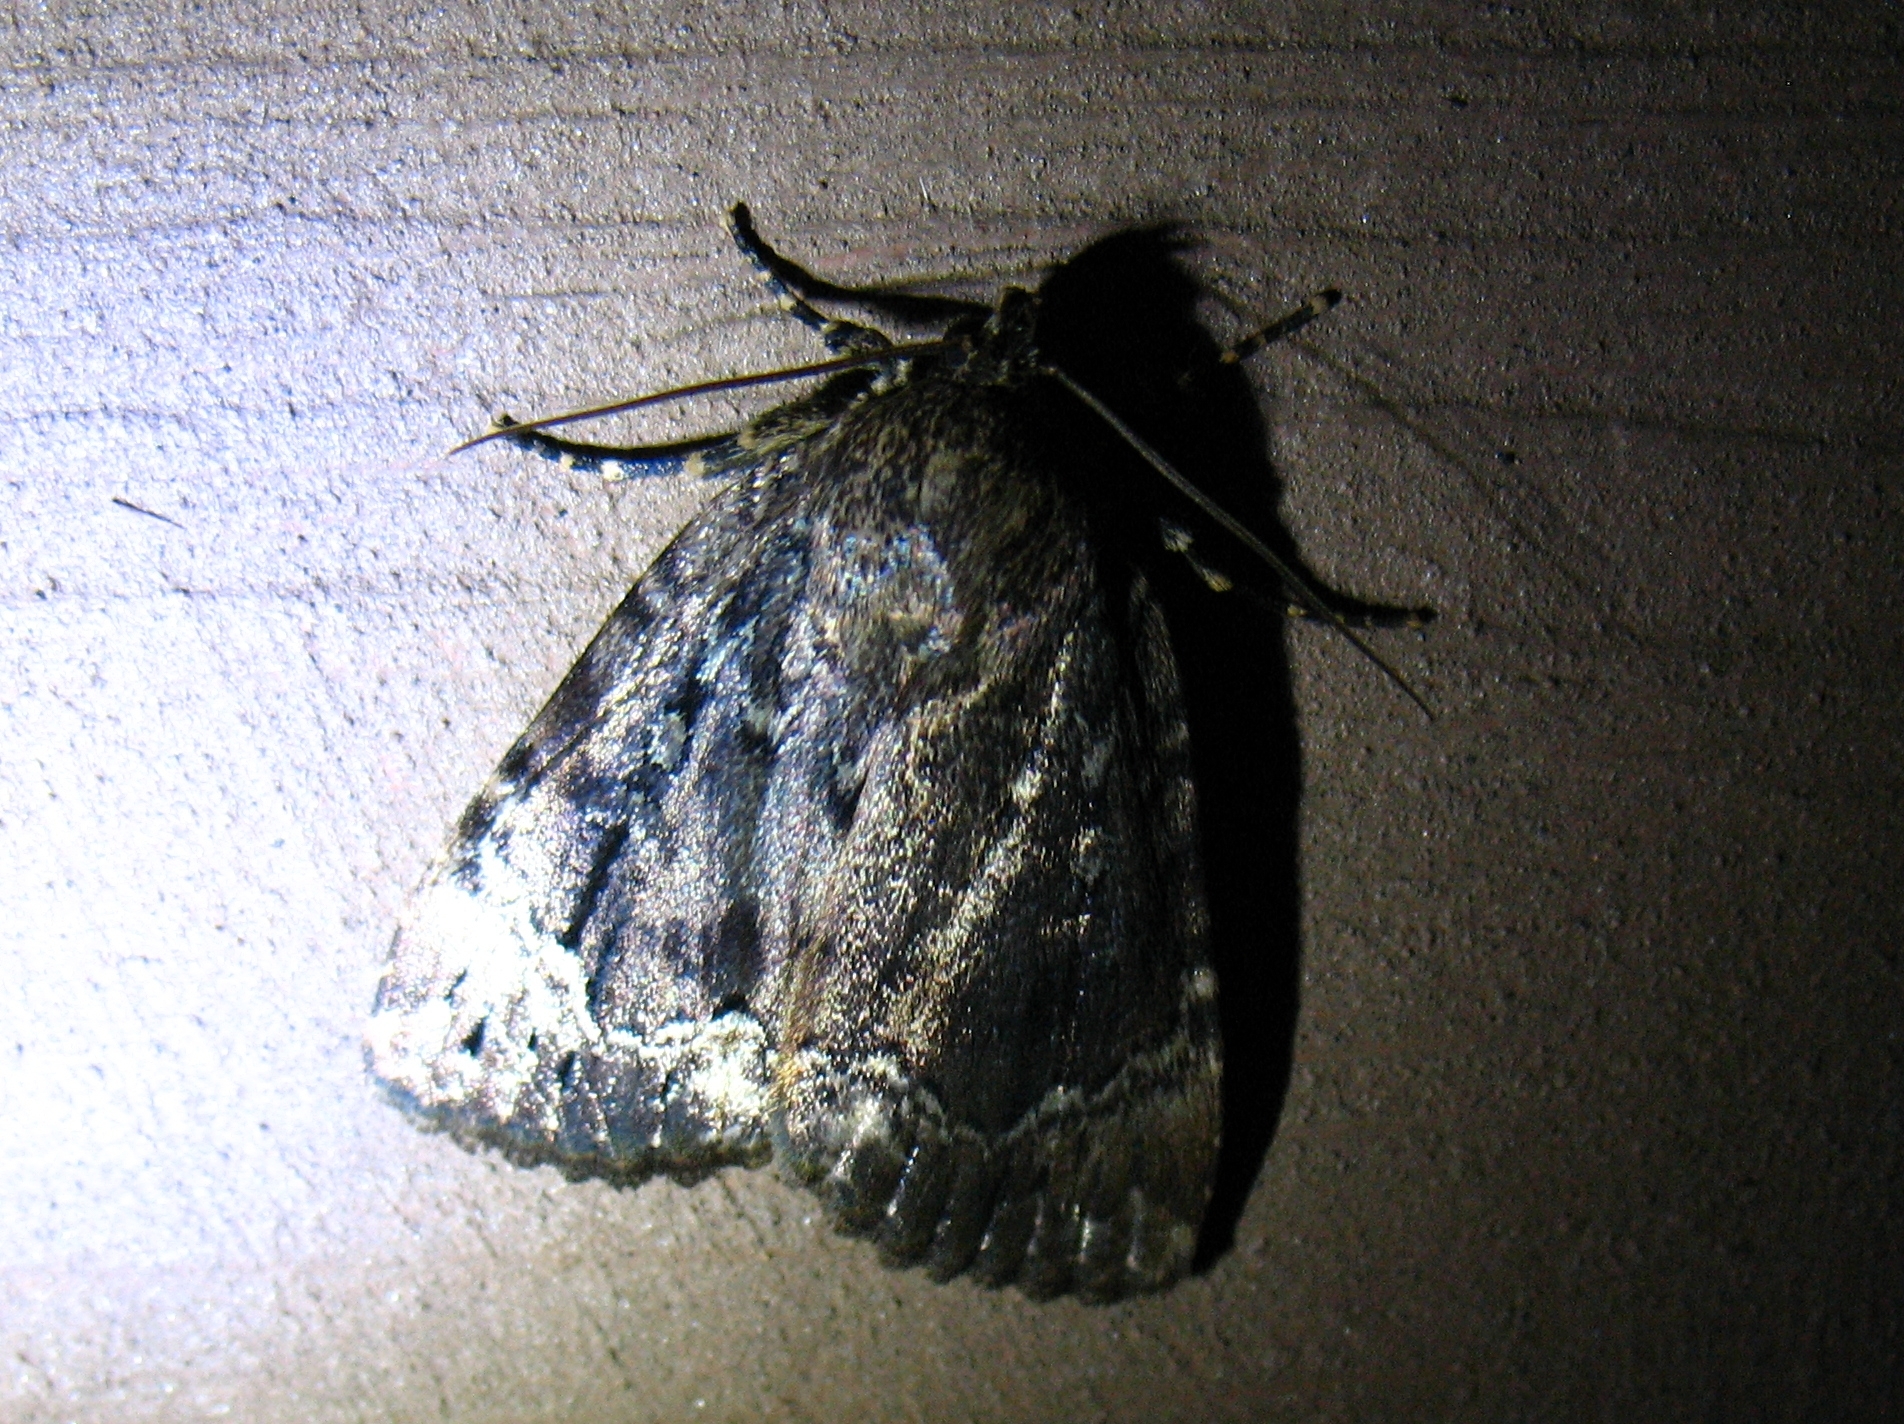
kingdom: Animalia
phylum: Arthropoda
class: Insecta
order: Lepidoptera
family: Noctuidae
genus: Amphipyra
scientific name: Amphipyra pyramidoides
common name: American copper underwing
